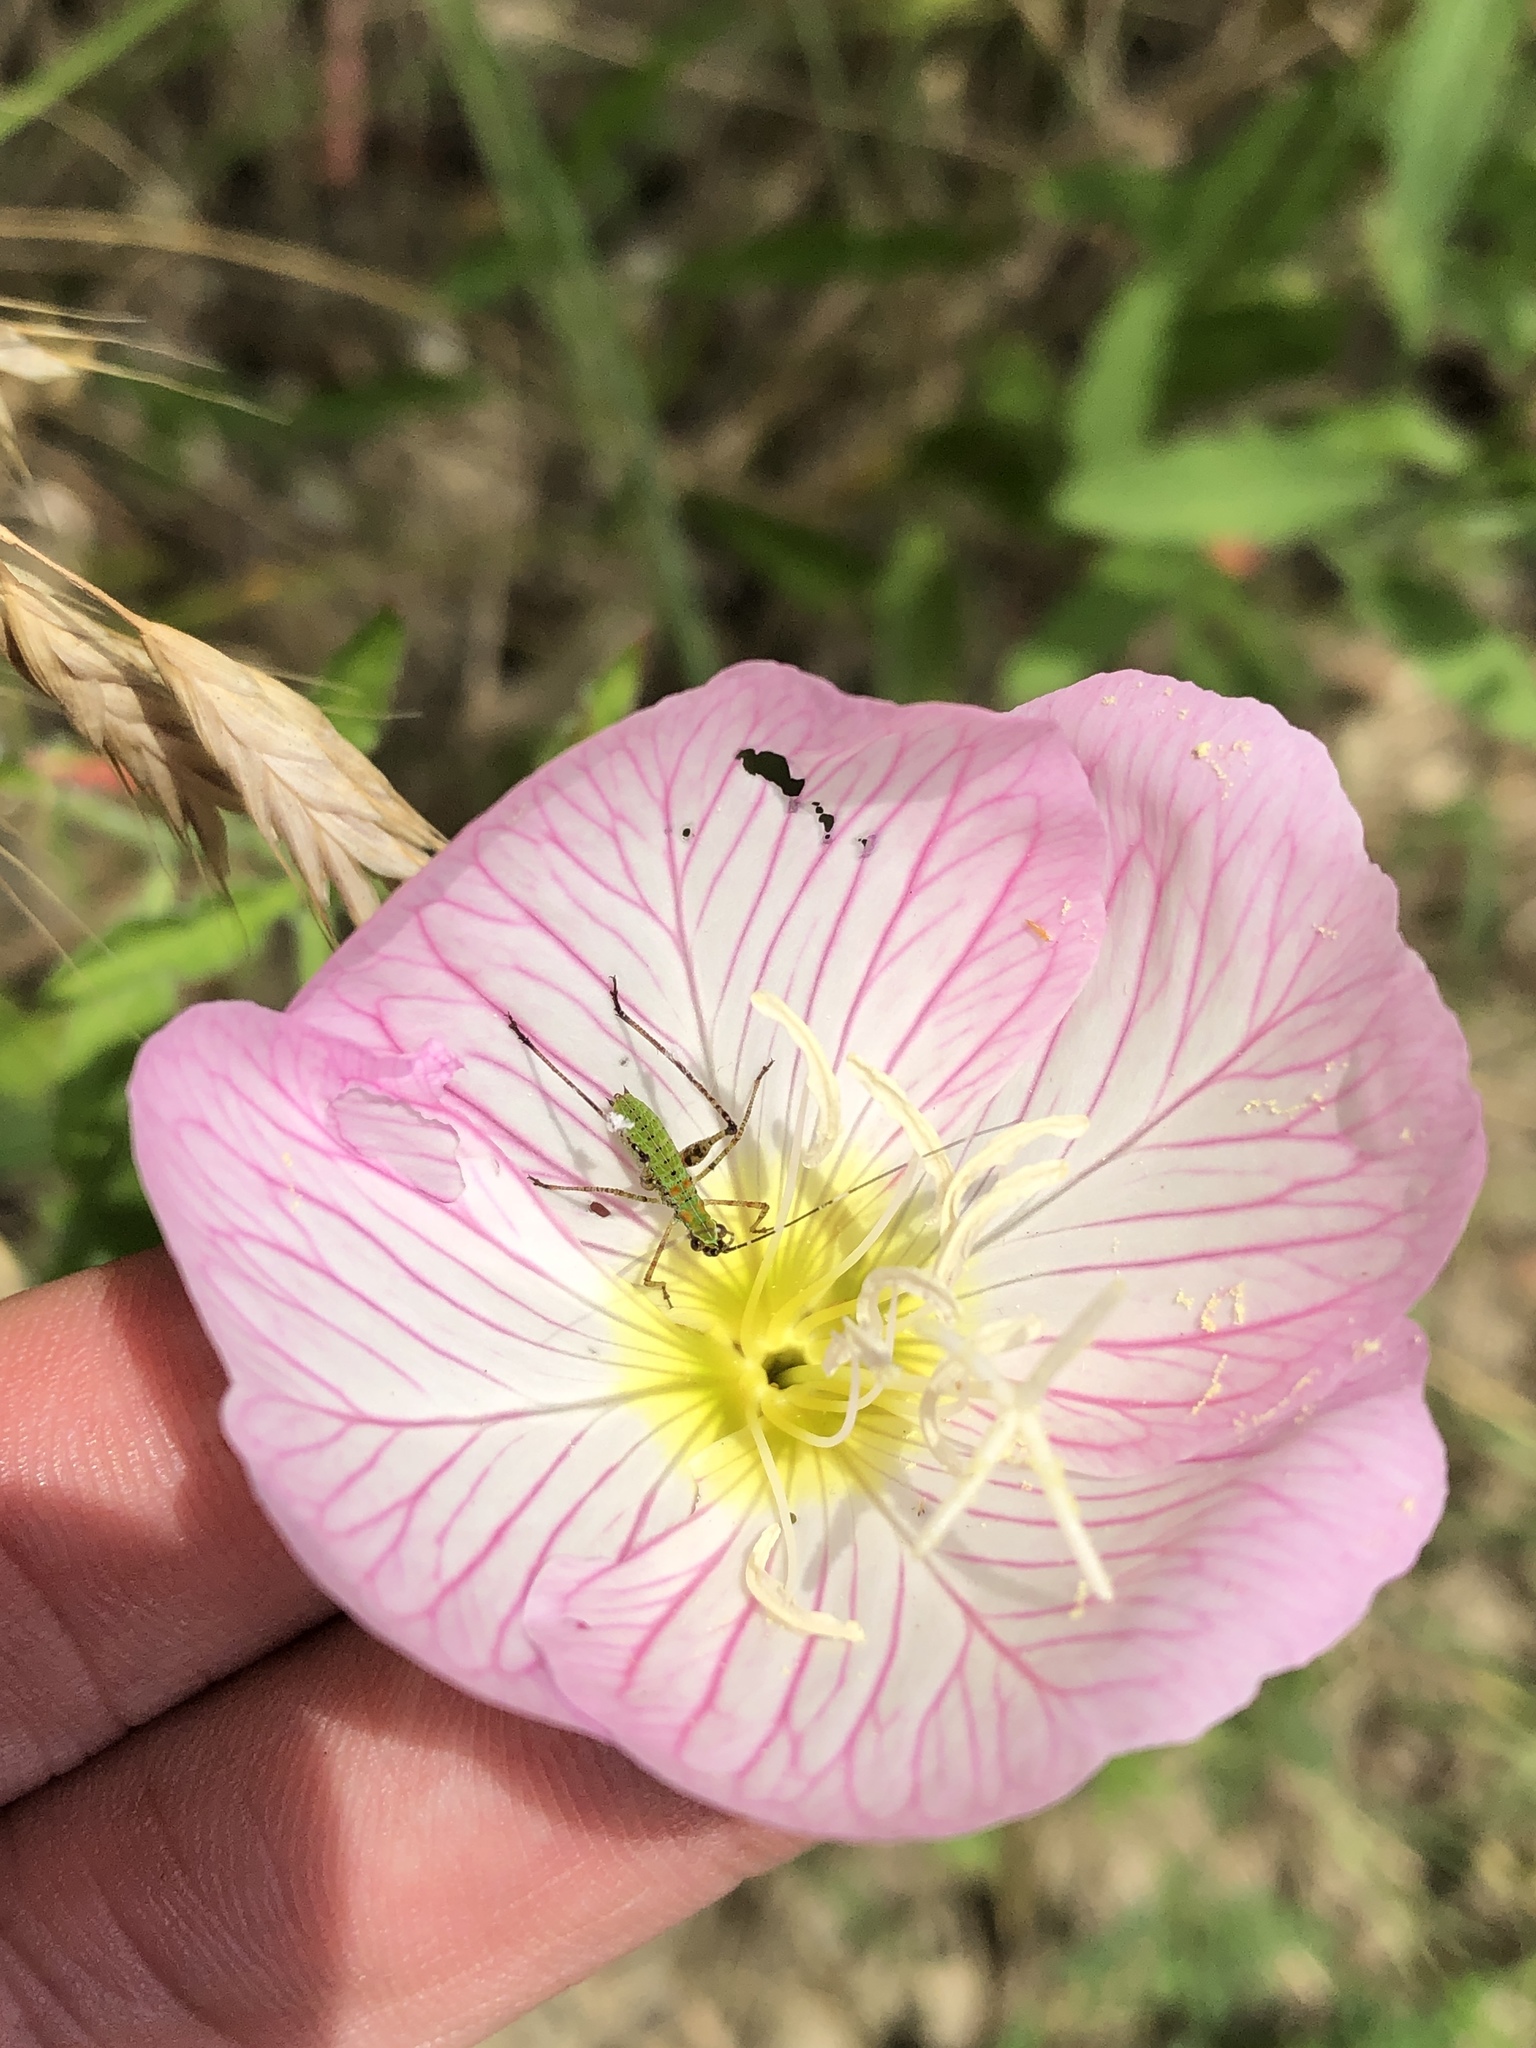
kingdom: Plantae
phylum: Tracheophyta
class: Magnoliopsida
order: Myrtales
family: Onagraceae
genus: Oenothera
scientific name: Oenothera speciosa
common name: White evening-primrose
